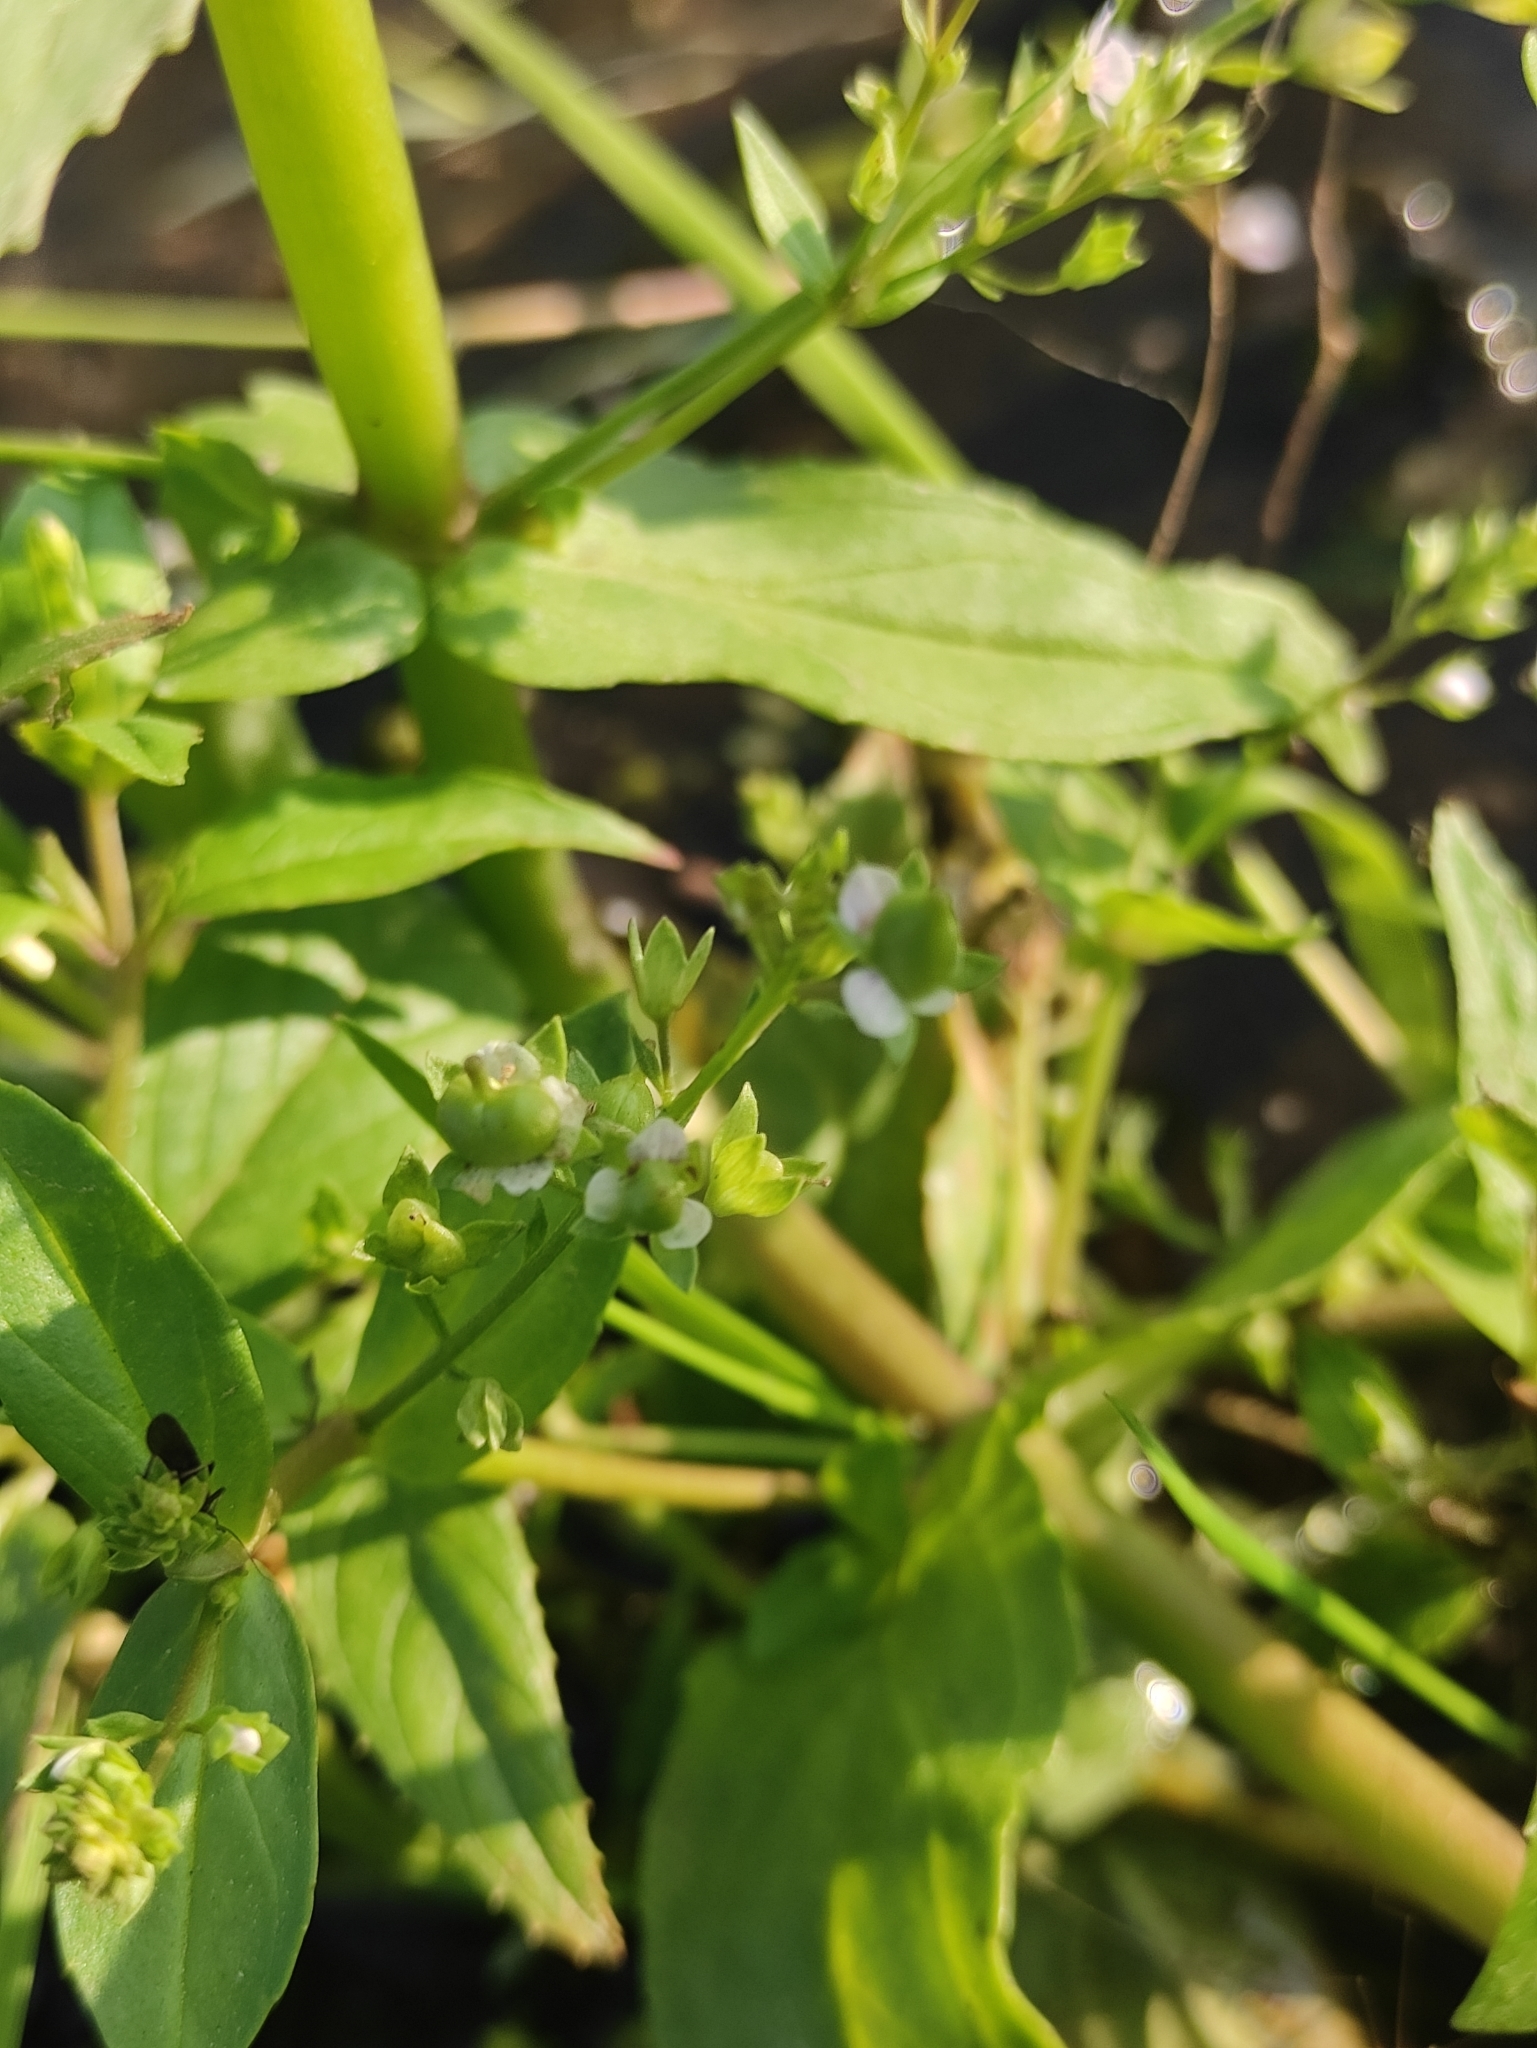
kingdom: Plantae
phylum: Tracheophyta
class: Magnoliopsida
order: Lamiales
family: Plantaginaceae
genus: Veronica
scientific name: Veronica anagallis-aquatica
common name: Water speedwell
